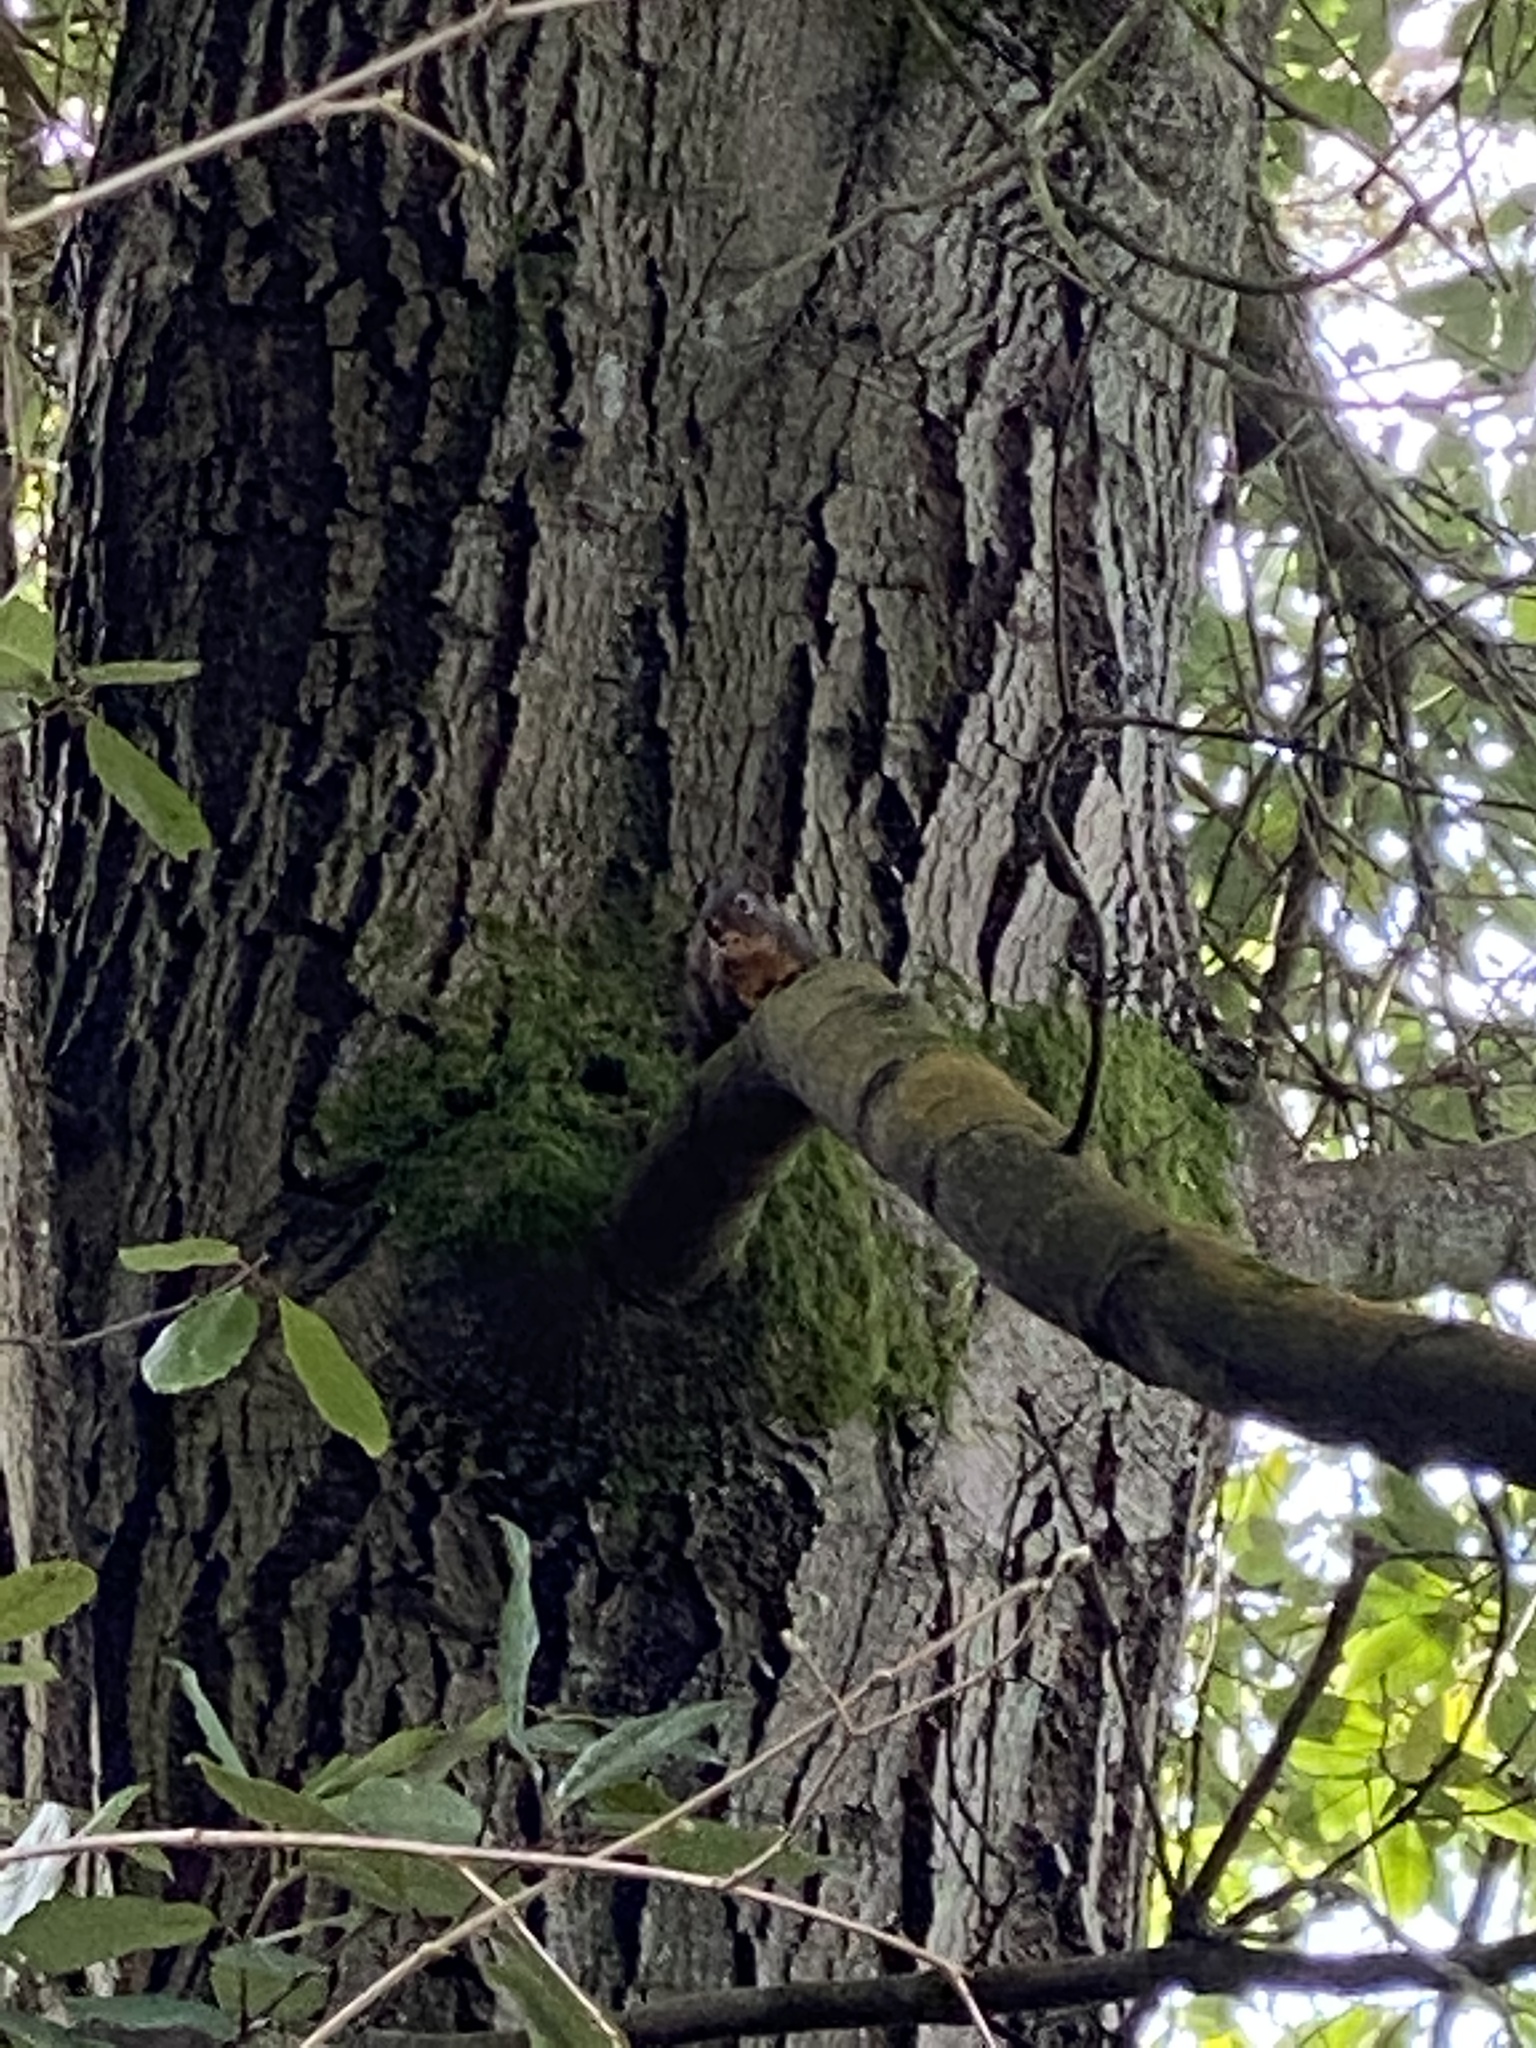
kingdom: Animalia
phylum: Chordata
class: Mammalia
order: Rodentia
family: Sciuridae
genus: Tamiasciurus
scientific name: Tamiasciurus douglasii
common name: Douglas's squirrel
